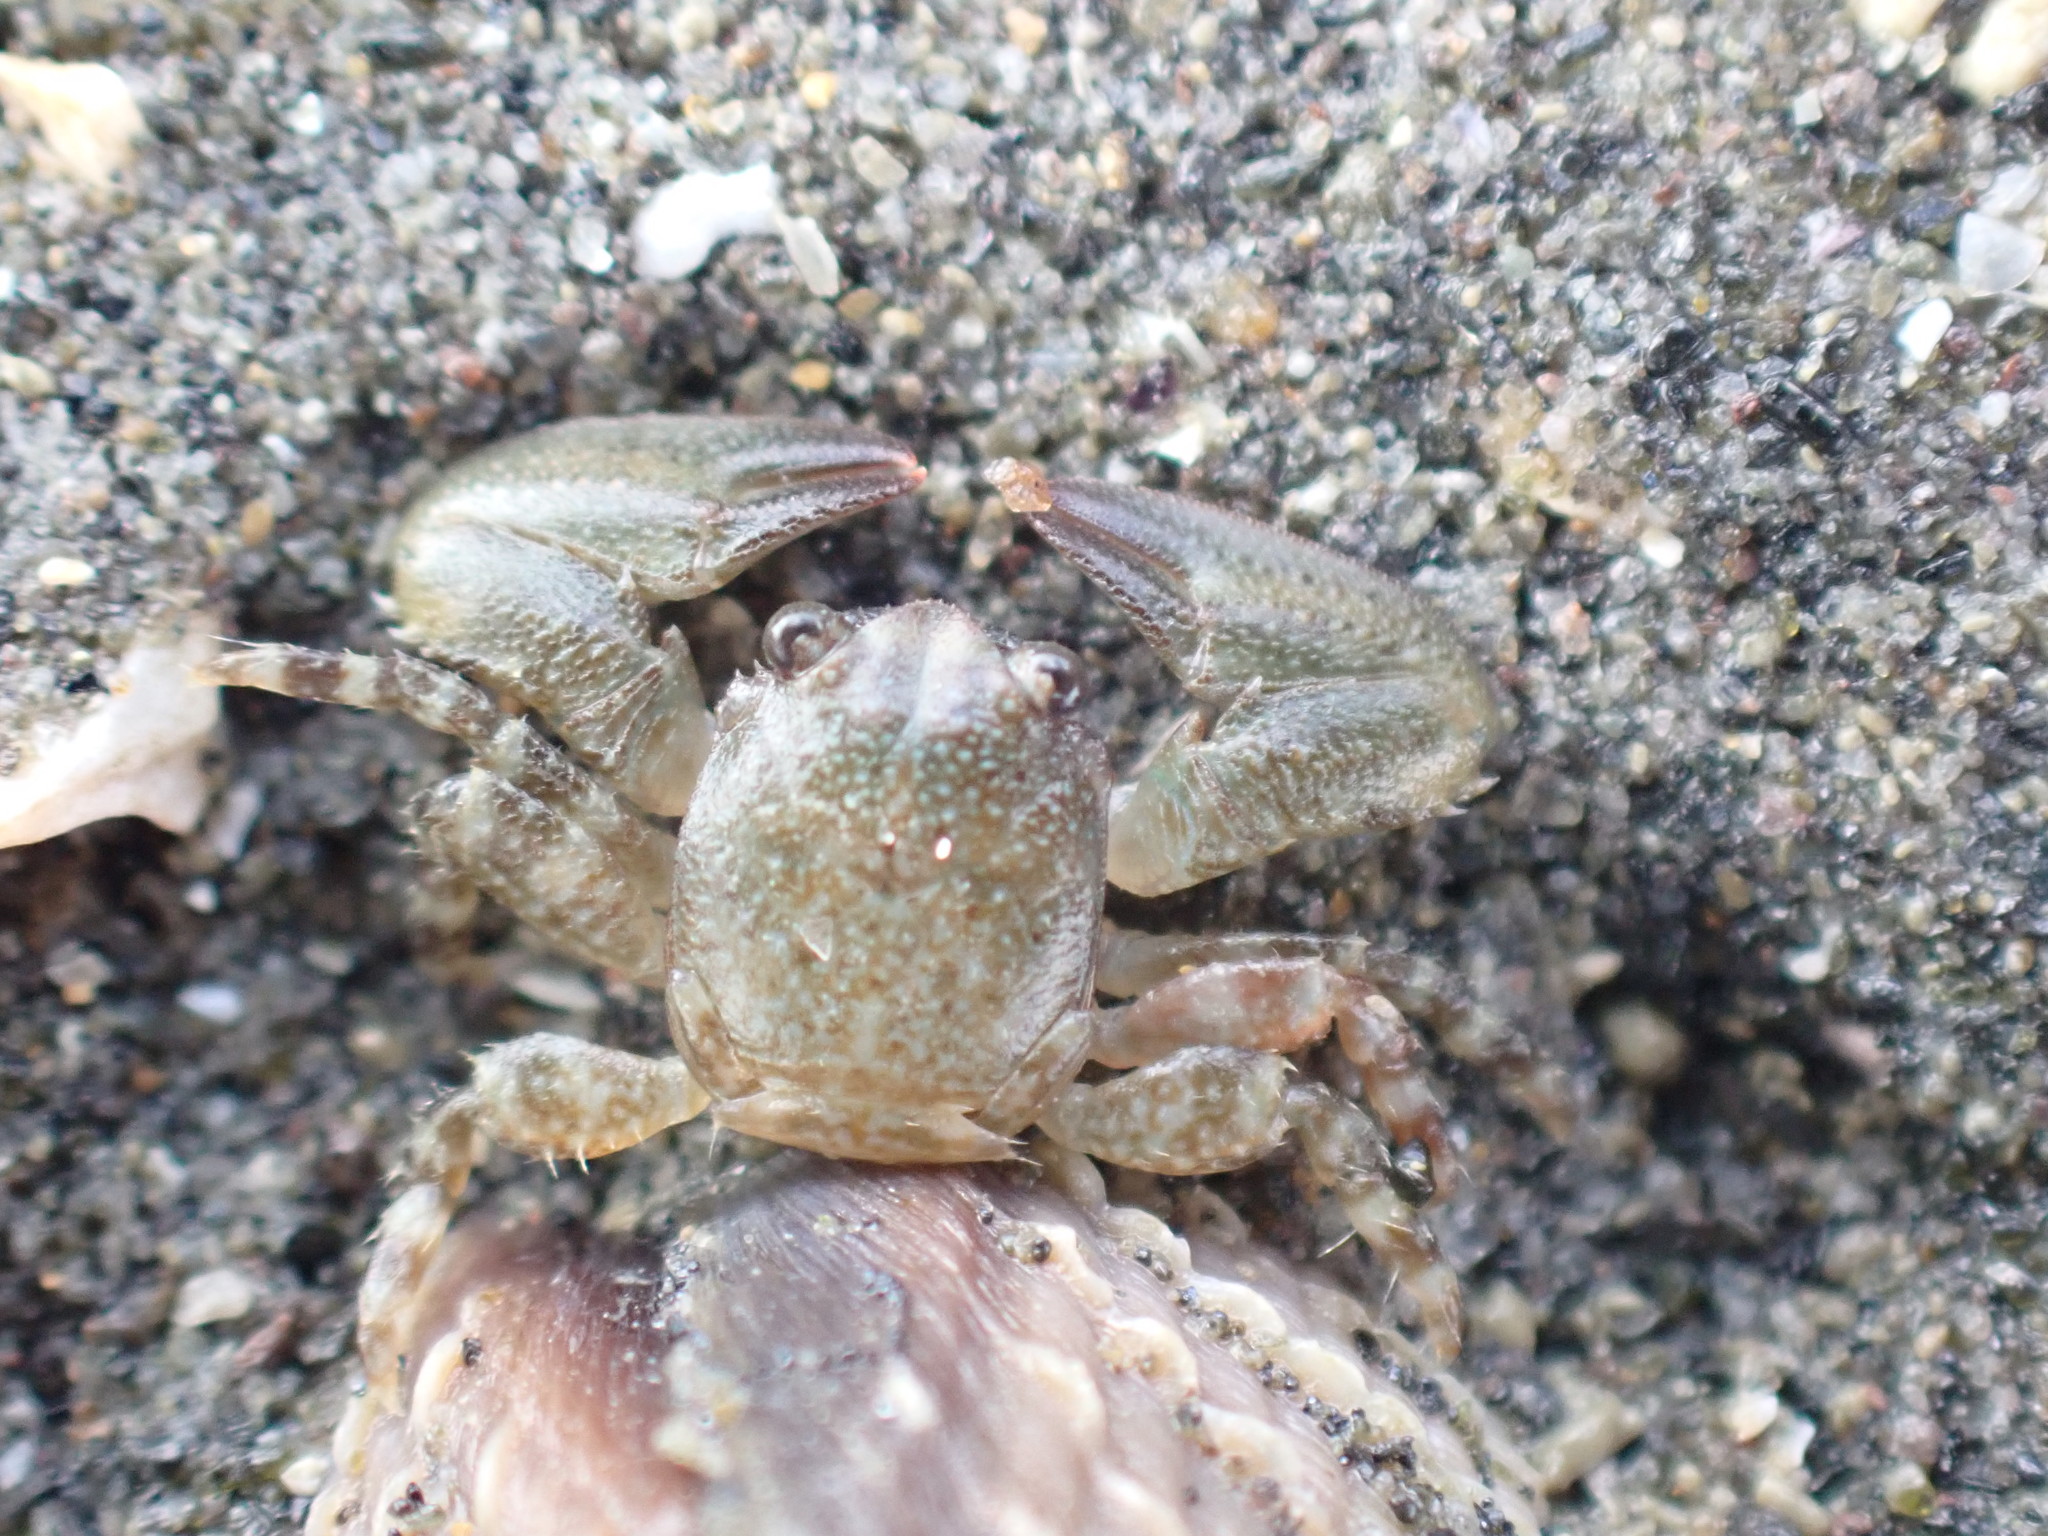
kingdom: Animalia
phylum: Arthropoda
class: Malacostraca
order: Decapoda
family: Porcellanidae
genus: Petrolisthes
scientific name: Petrolisthes elongatus
